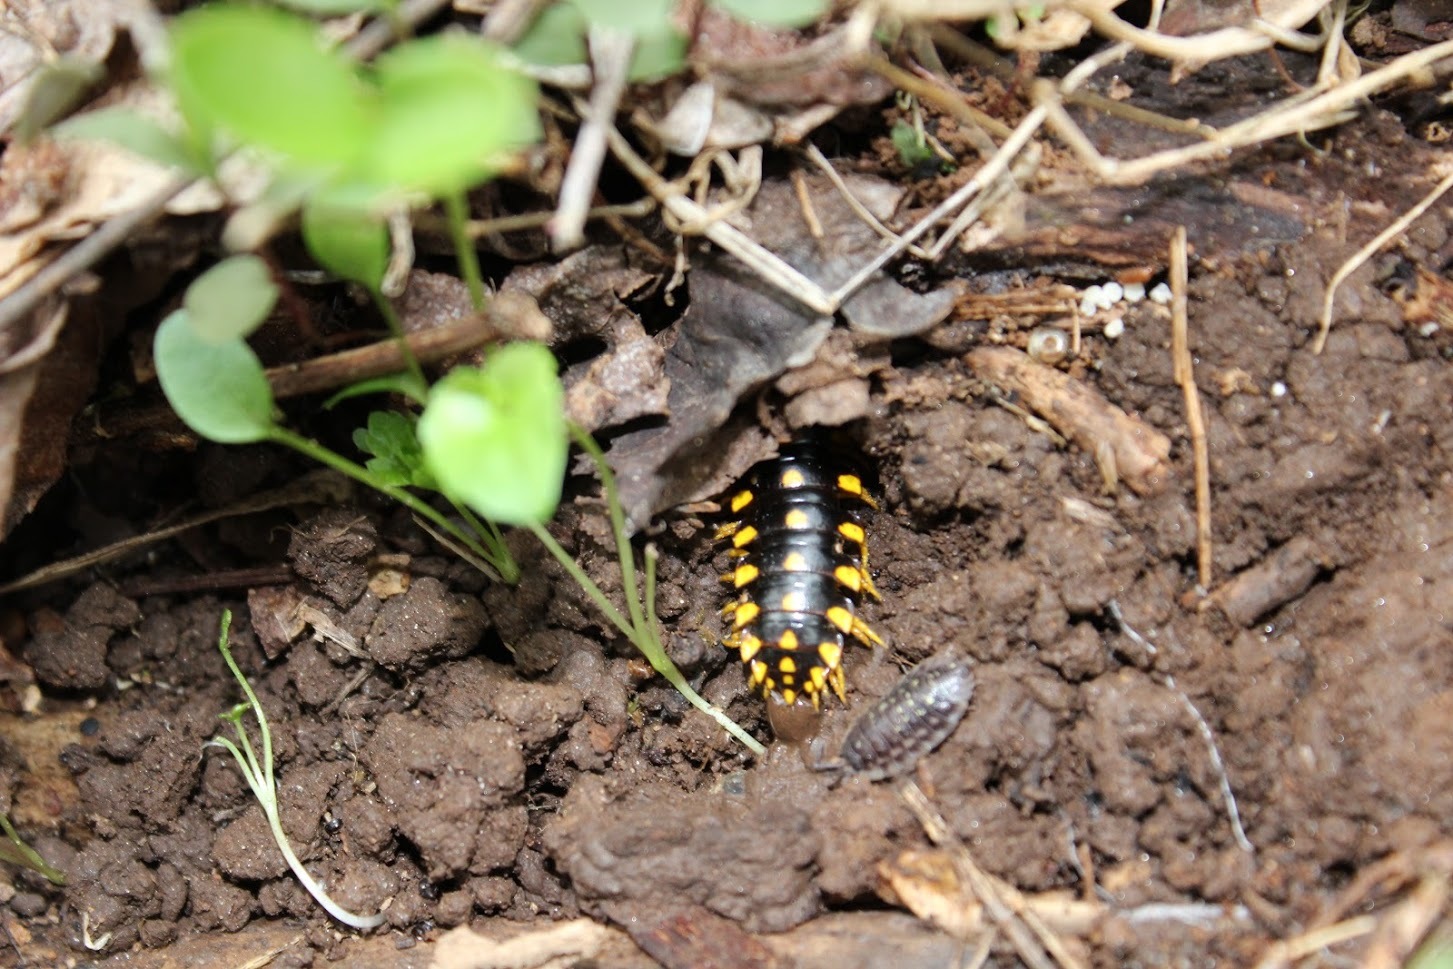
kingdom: Animalia
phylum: Arthropoda
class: Diplopoda
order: Polydesmida
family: Xystodesmidae
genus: Apheloria
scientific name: Apheloria montana
